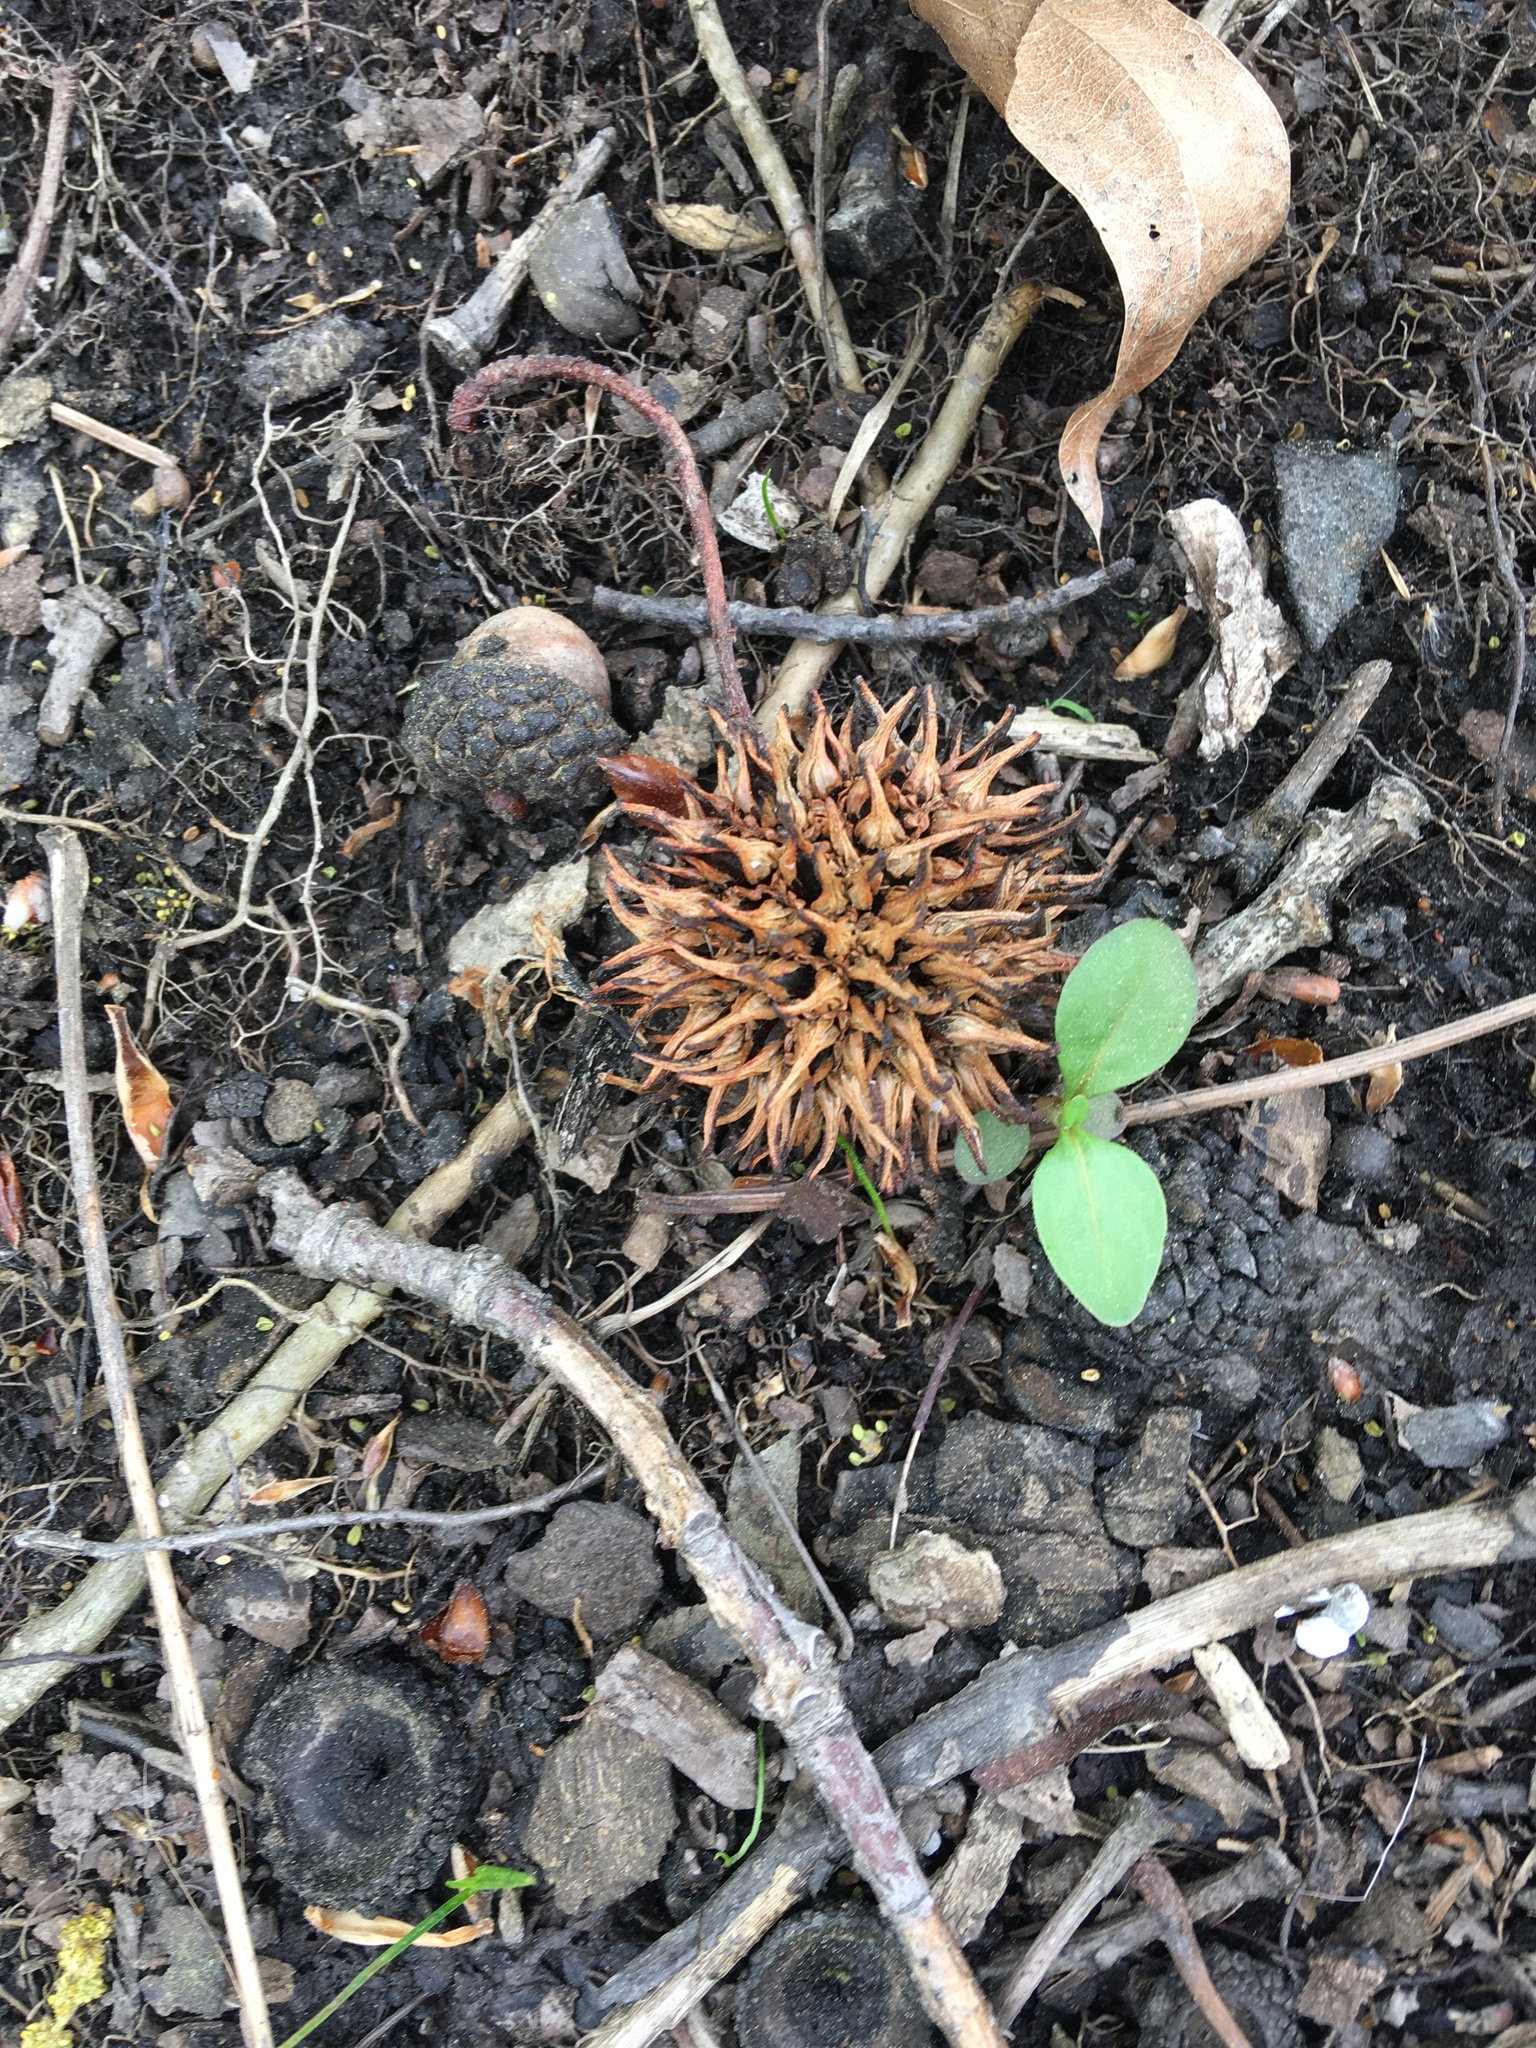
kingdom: Plantae
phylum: Tracheophyta
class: Magnoliopsida
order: Saxifragales
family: Altingiaceae
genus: Liquidambar
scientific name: Liquidambar styraciflua
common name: Sweet gum
